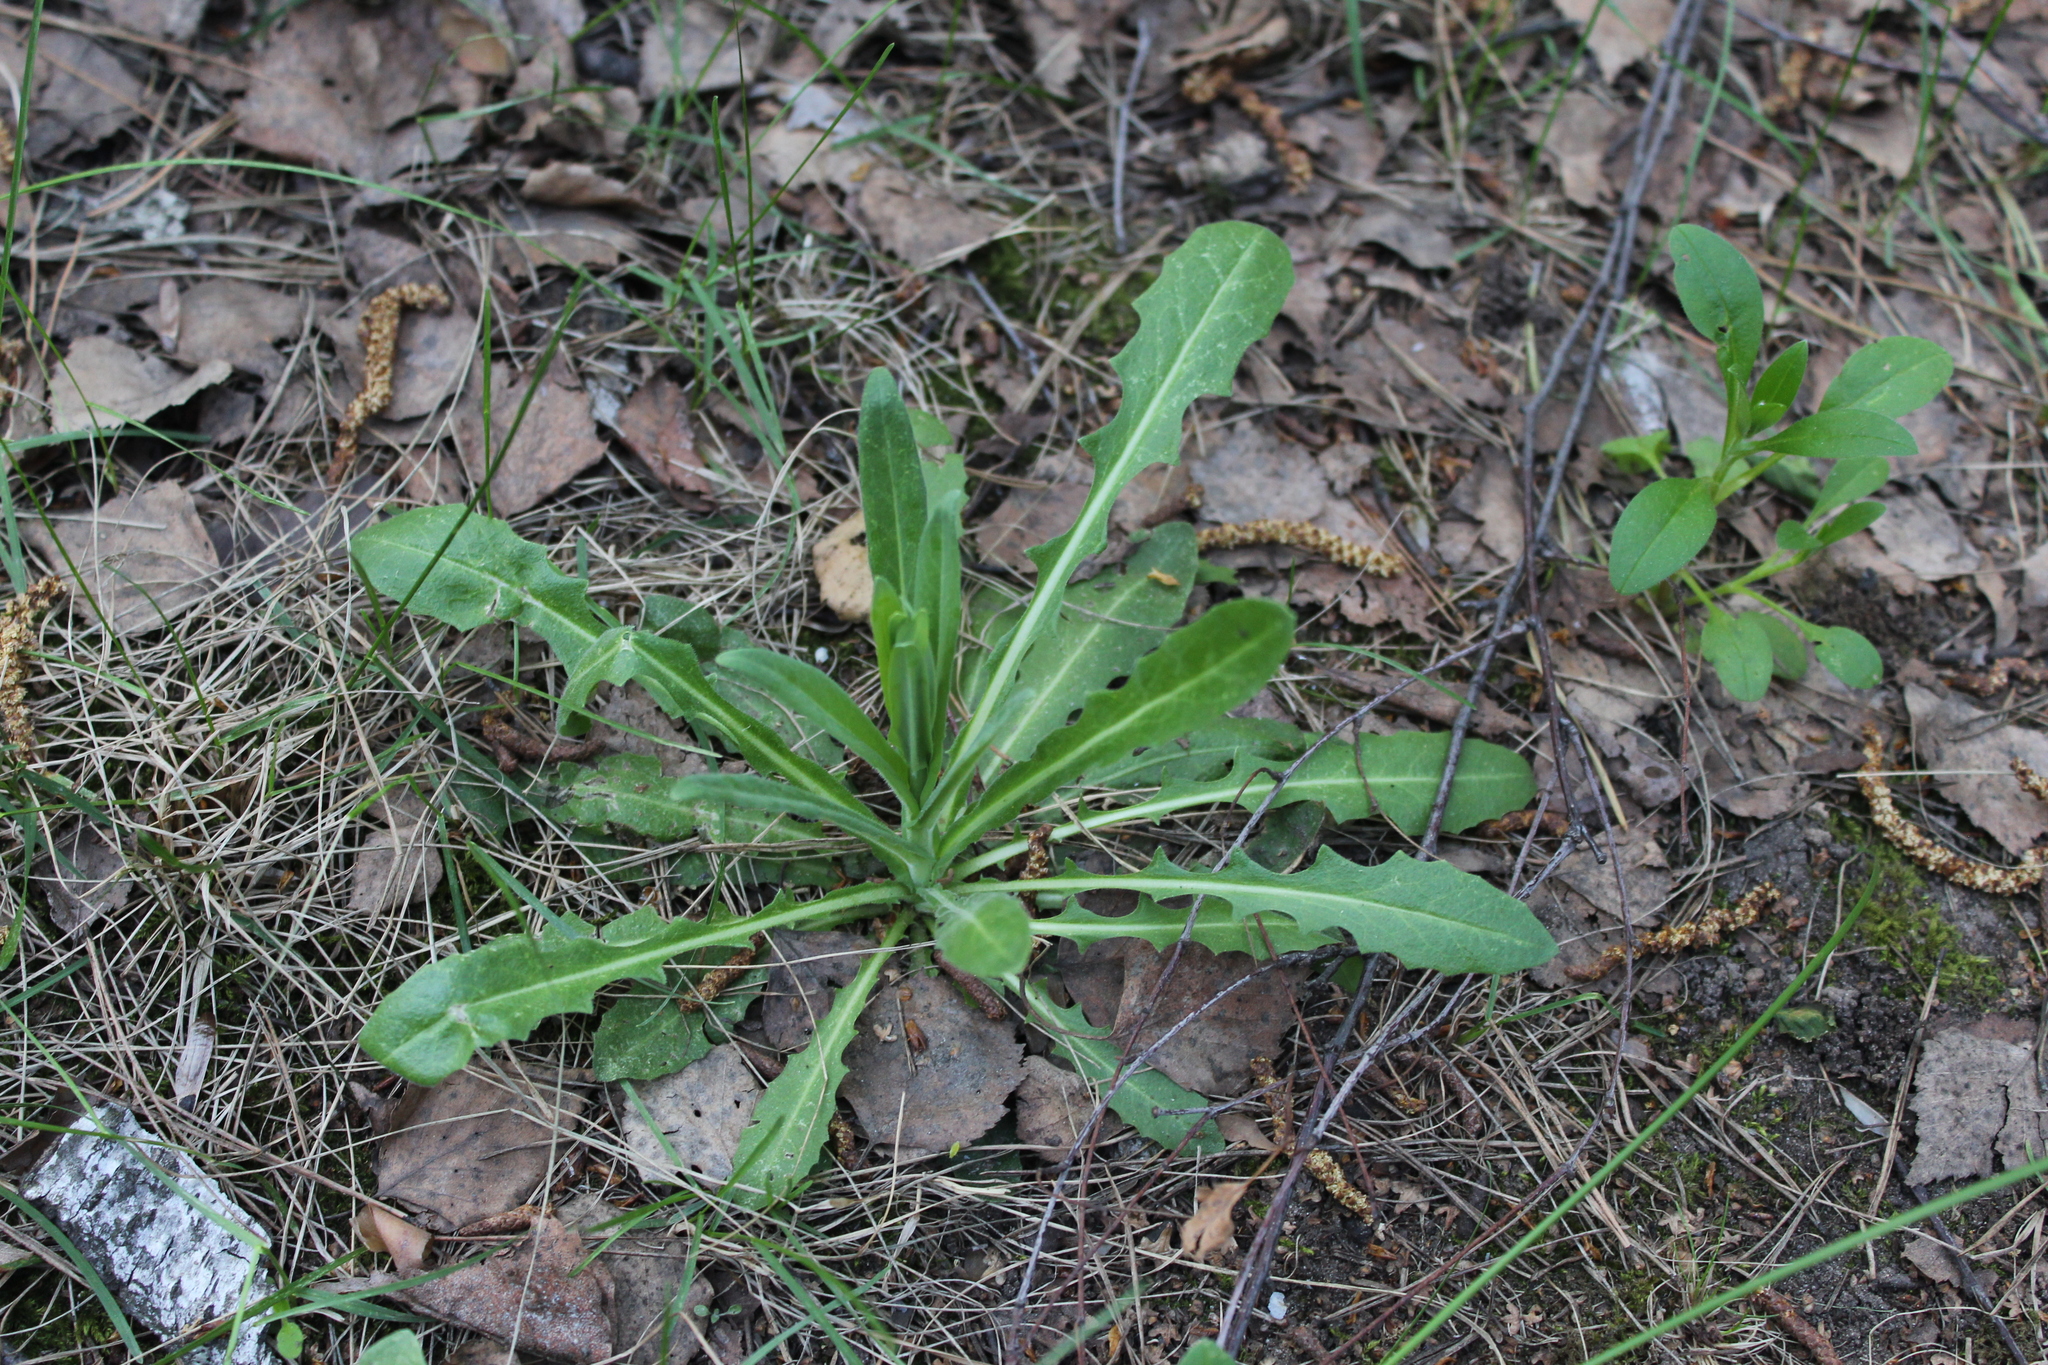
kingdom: Plantae
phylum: Tracheophyta
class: Magnoliopsida
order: Brassicales
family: Brassicaceae
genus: Turritis
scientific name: Turritis glabra
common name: Tower rockcress
